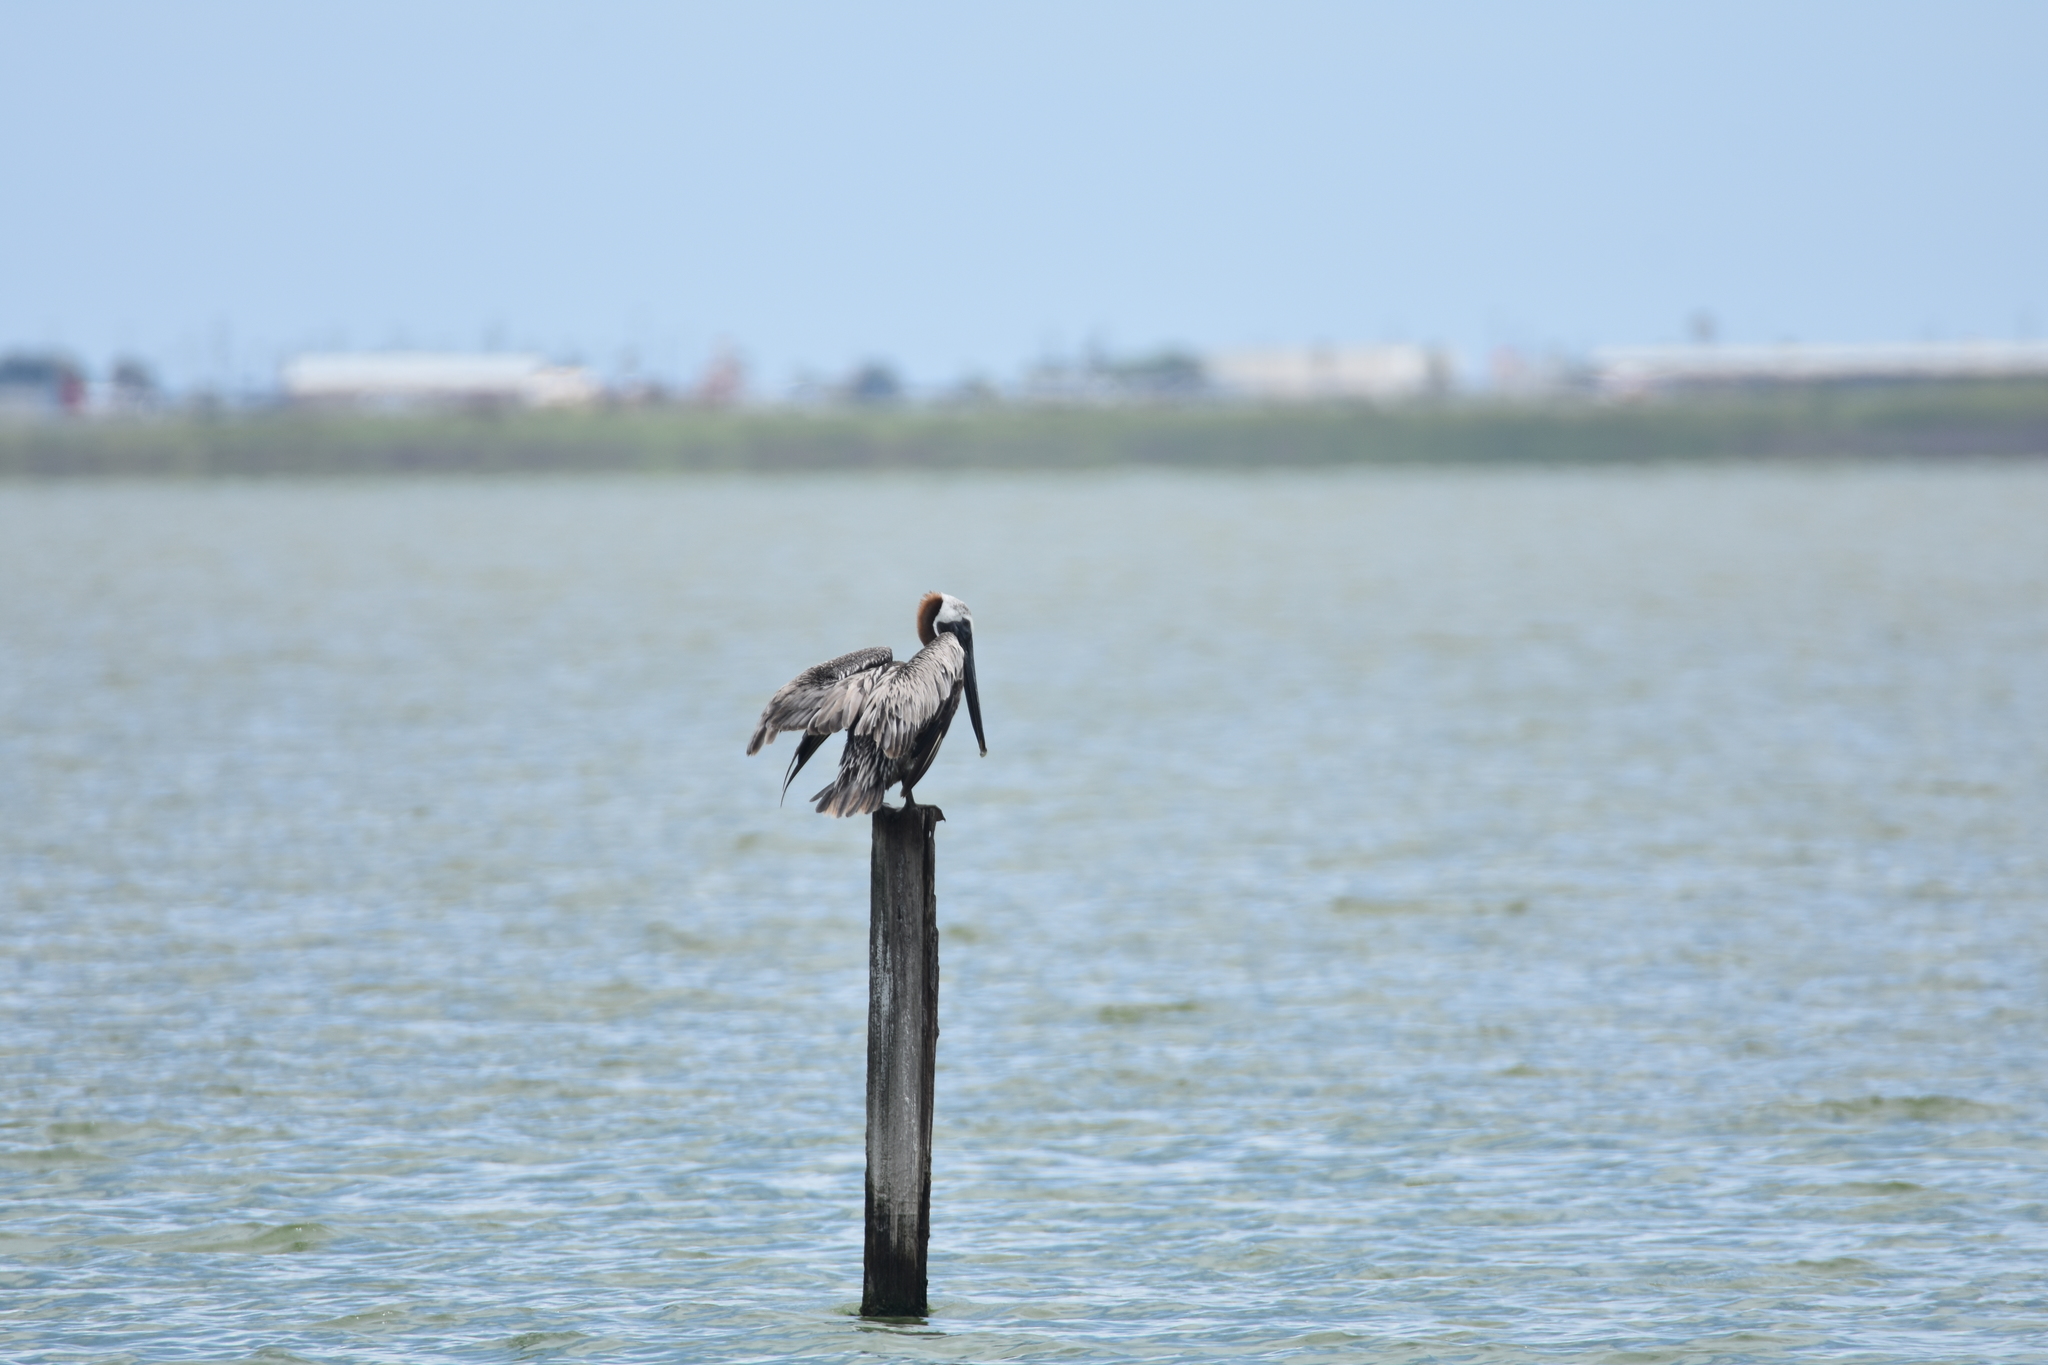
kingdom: Animalia
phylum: Chordata
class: Aves
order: Pelecaniformes
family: Pelecanidae
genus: Pelecanus
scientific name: Pelecanus occidentalis
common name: Brown pelican
